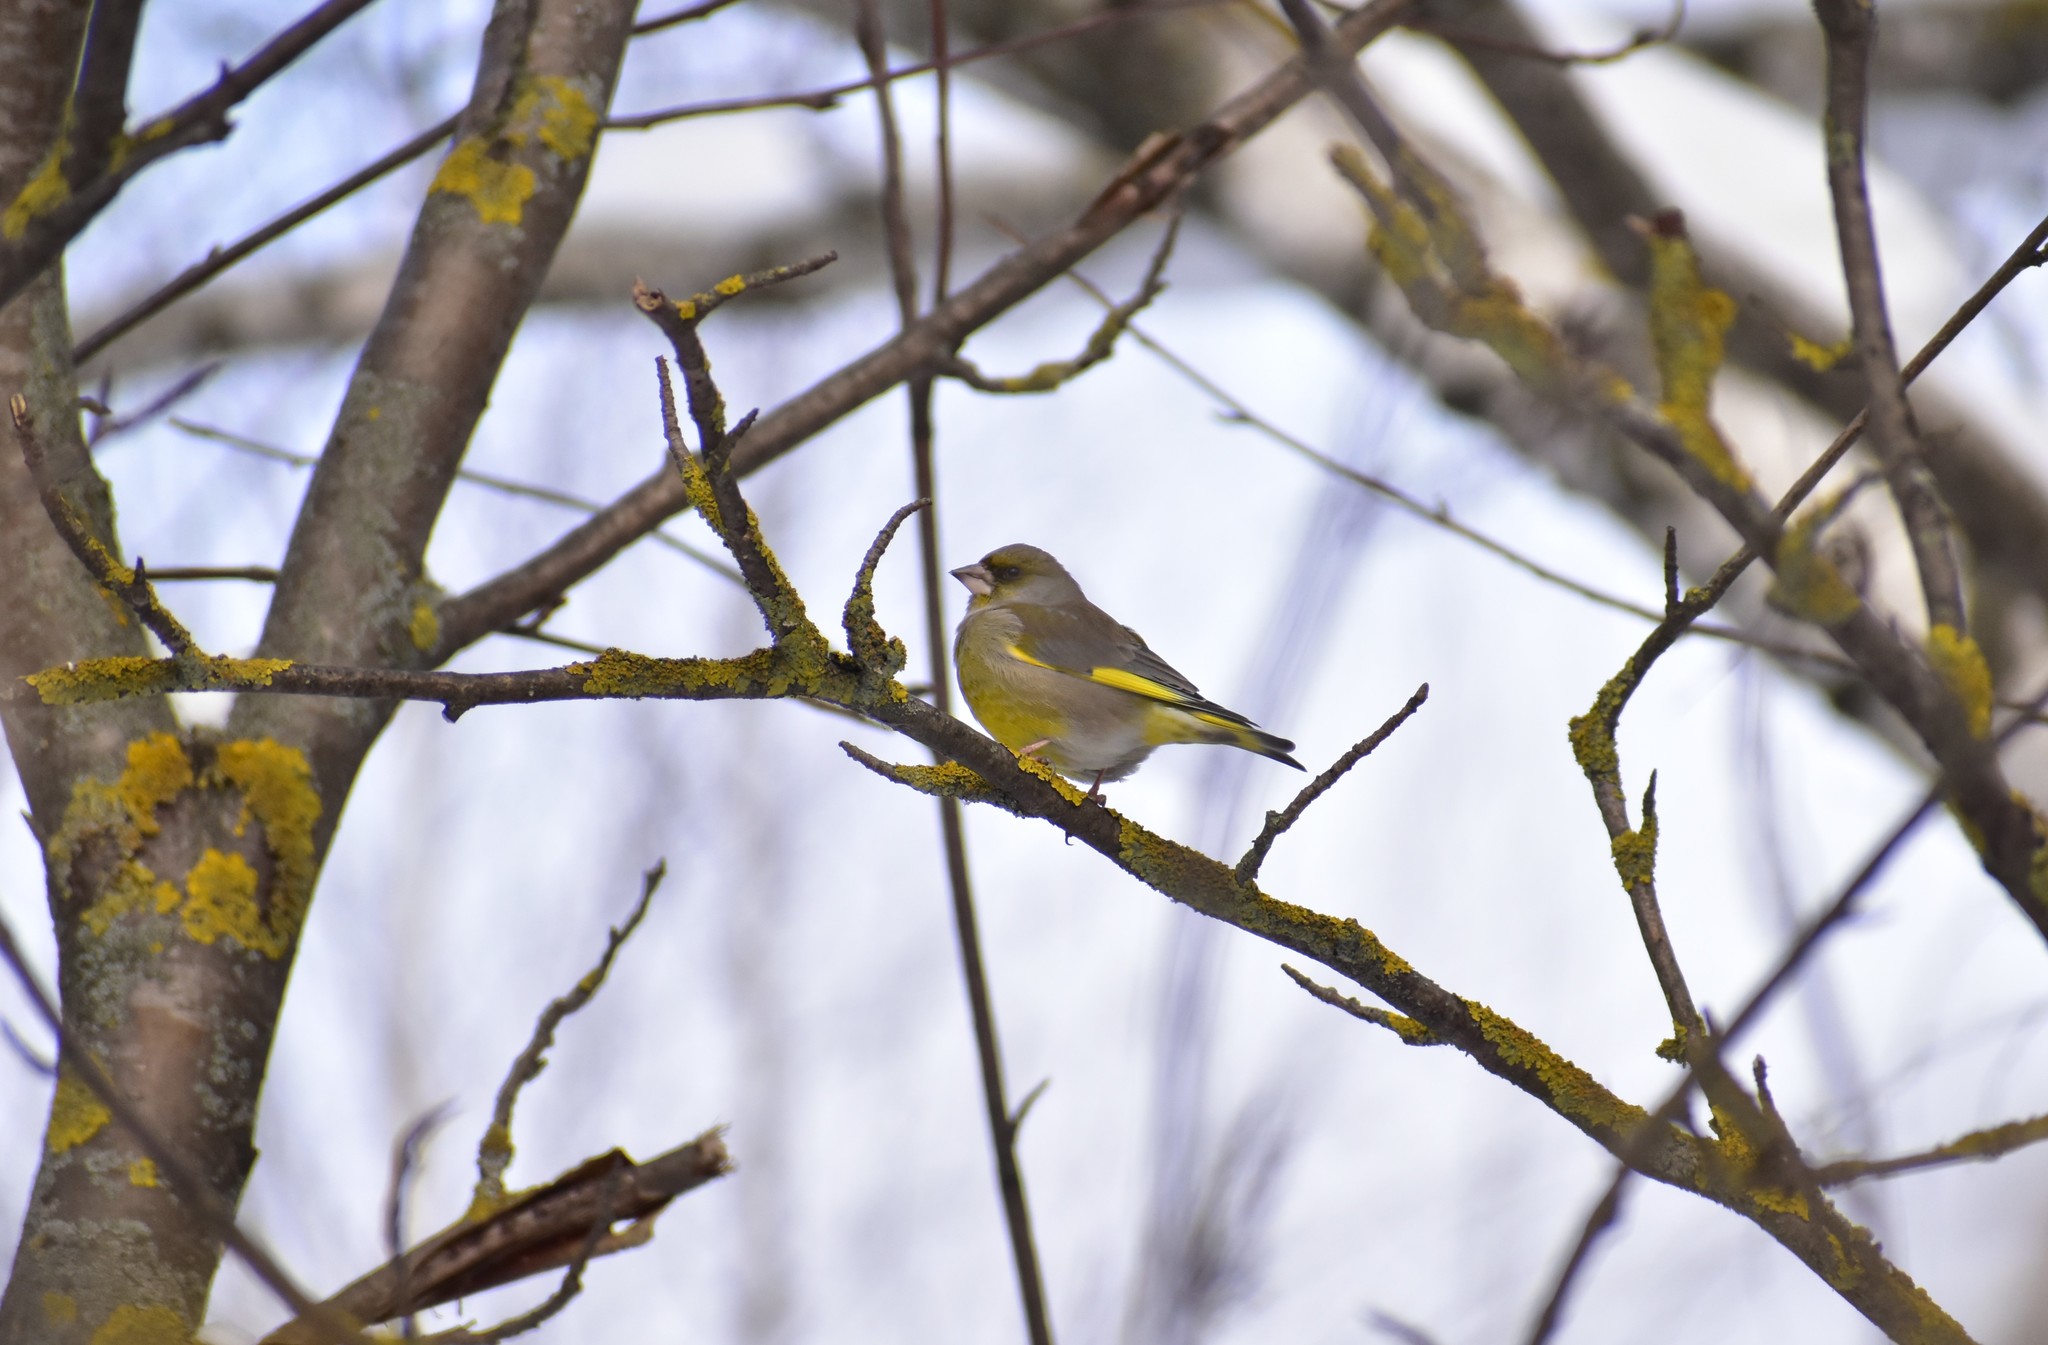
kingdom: Plantae
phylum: Tracheophyta
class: Liliopsida
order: Poales
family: Poaceae
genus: Chloris
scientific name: Chloris chloris
